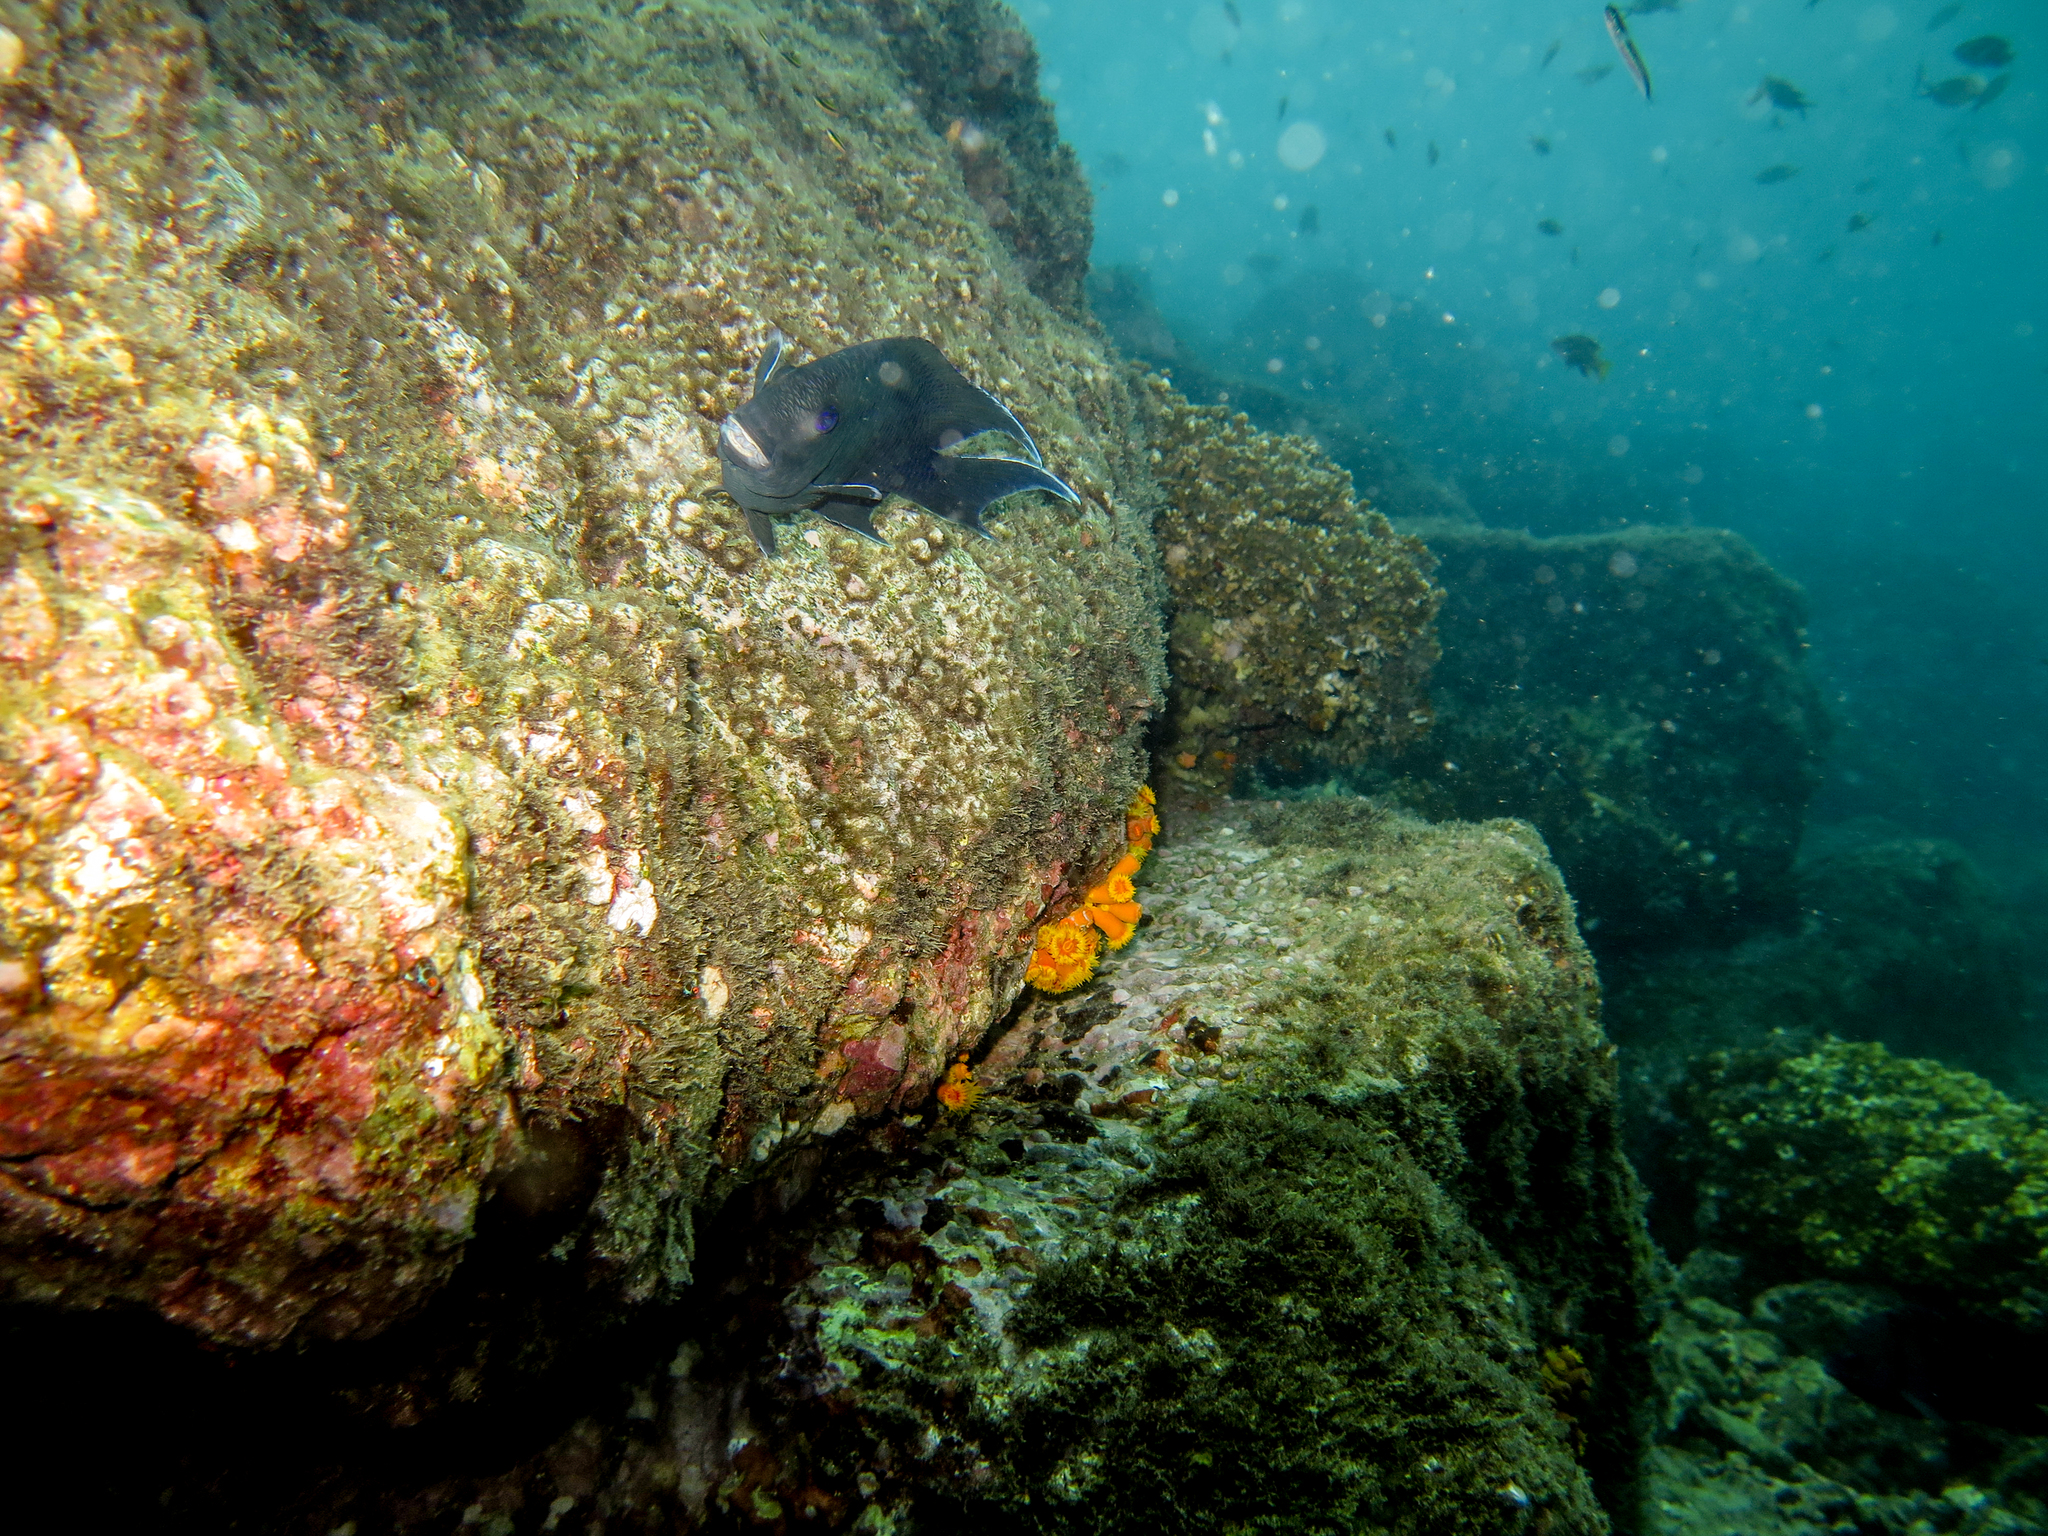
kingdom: Animalia
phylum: Chordata
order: Perciformes
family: Pomacentridae
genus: Microspathodon
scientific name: Microspathodon dorsalis
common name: Giant damselfish
